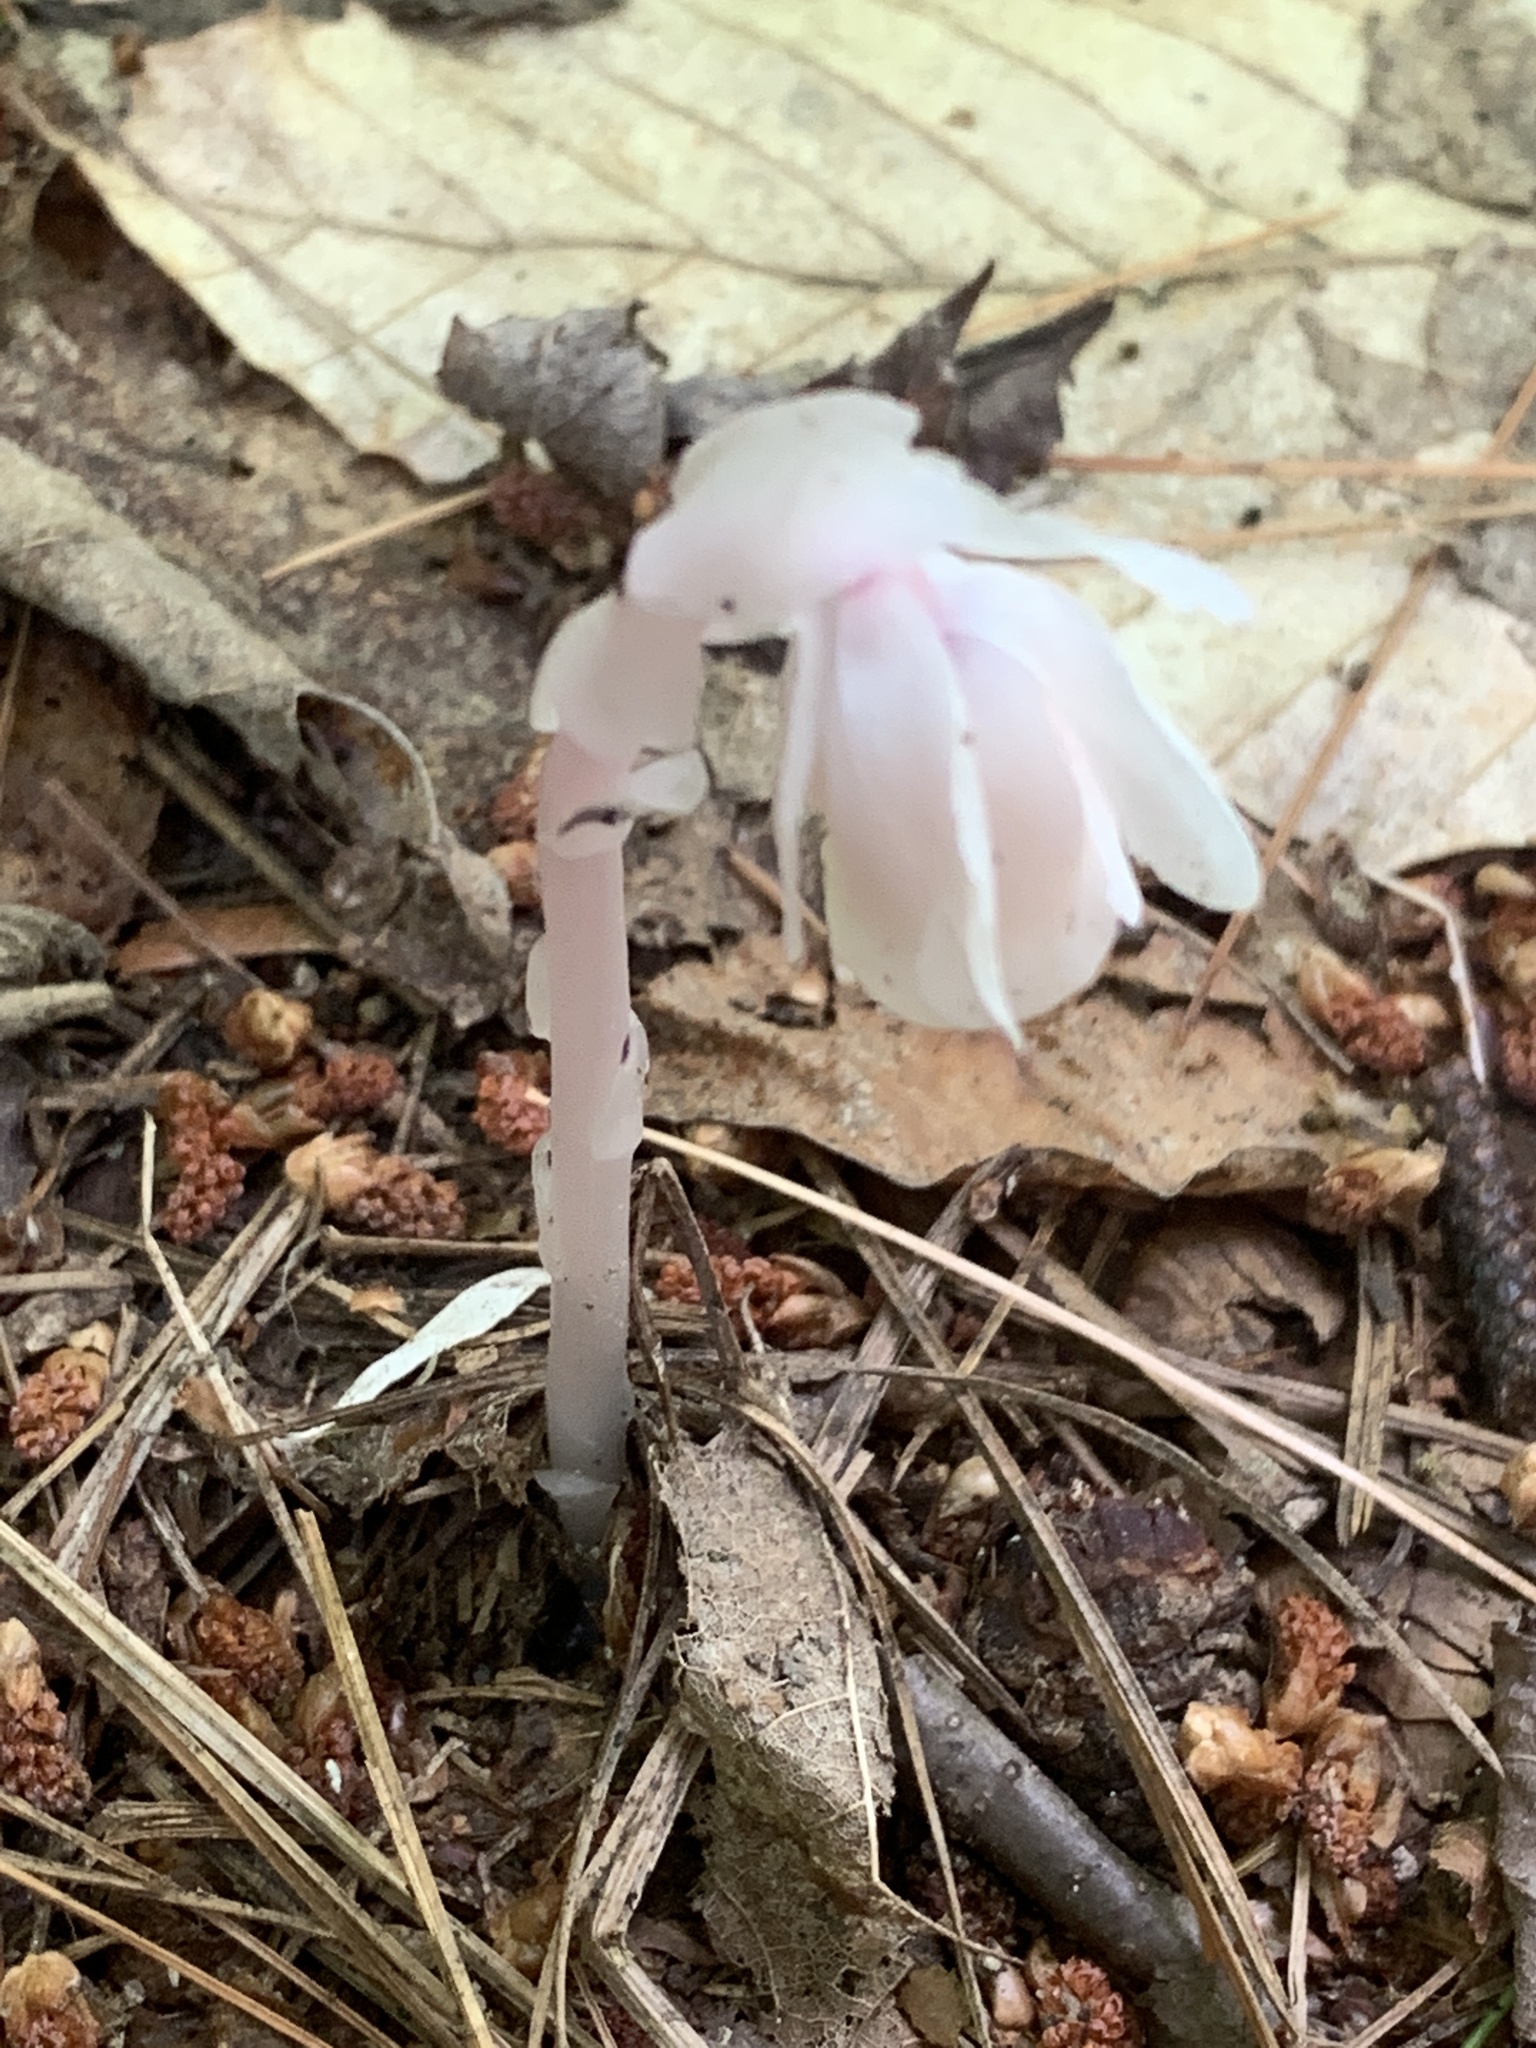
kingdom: Plantae
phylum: Tracheophyta
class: Magnoliopsida
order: Ericales
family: Ericaceae
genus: Monotropa
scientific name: Monotropa uniflora
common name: Convulsion root
